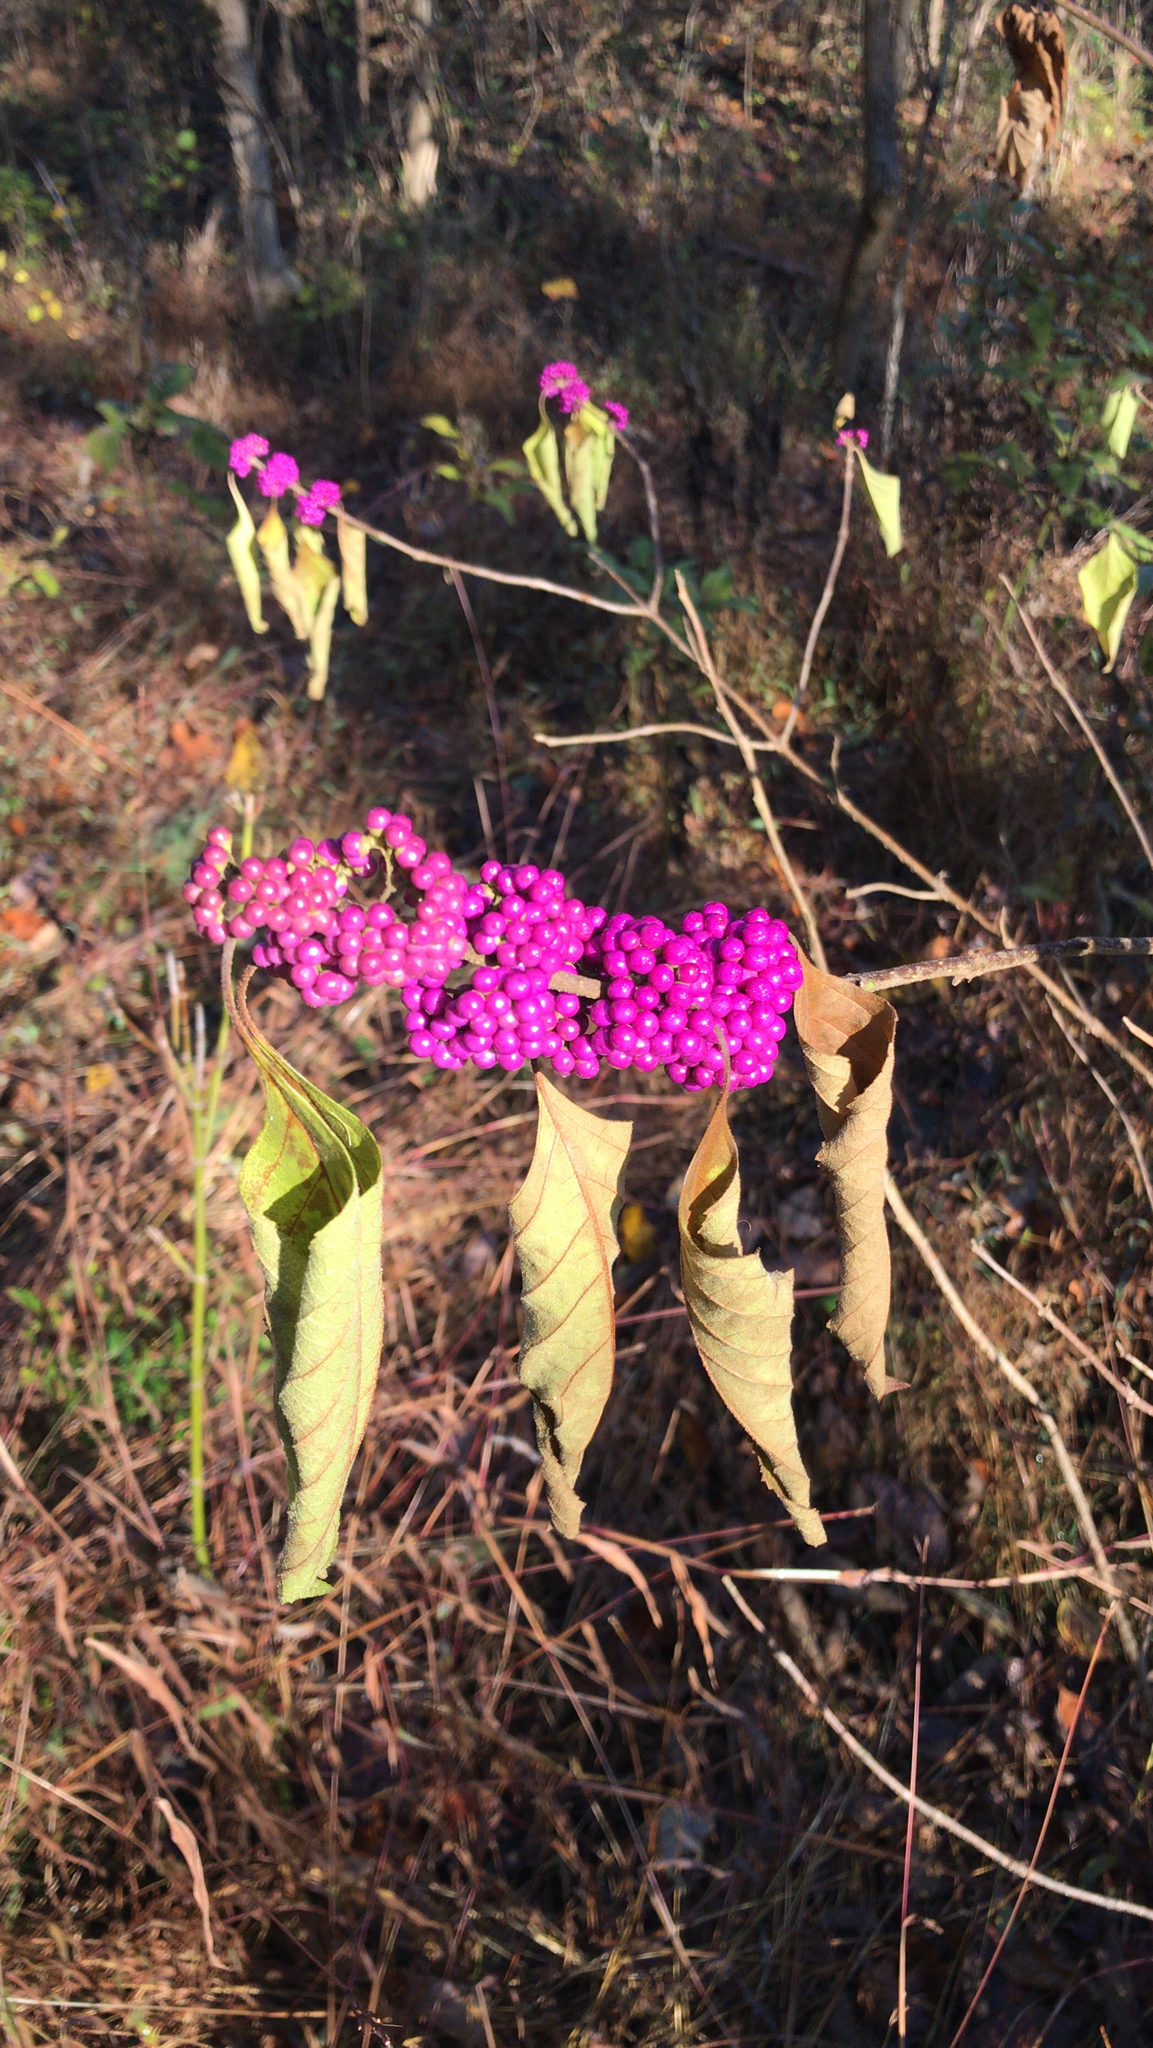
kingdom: Plantae
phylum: Tracheophyta
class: Magnoliopsida
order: Lamiales
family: Lamiaceae
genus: Callicarpa
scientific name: Callicarpa americana
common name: American beautyberry
